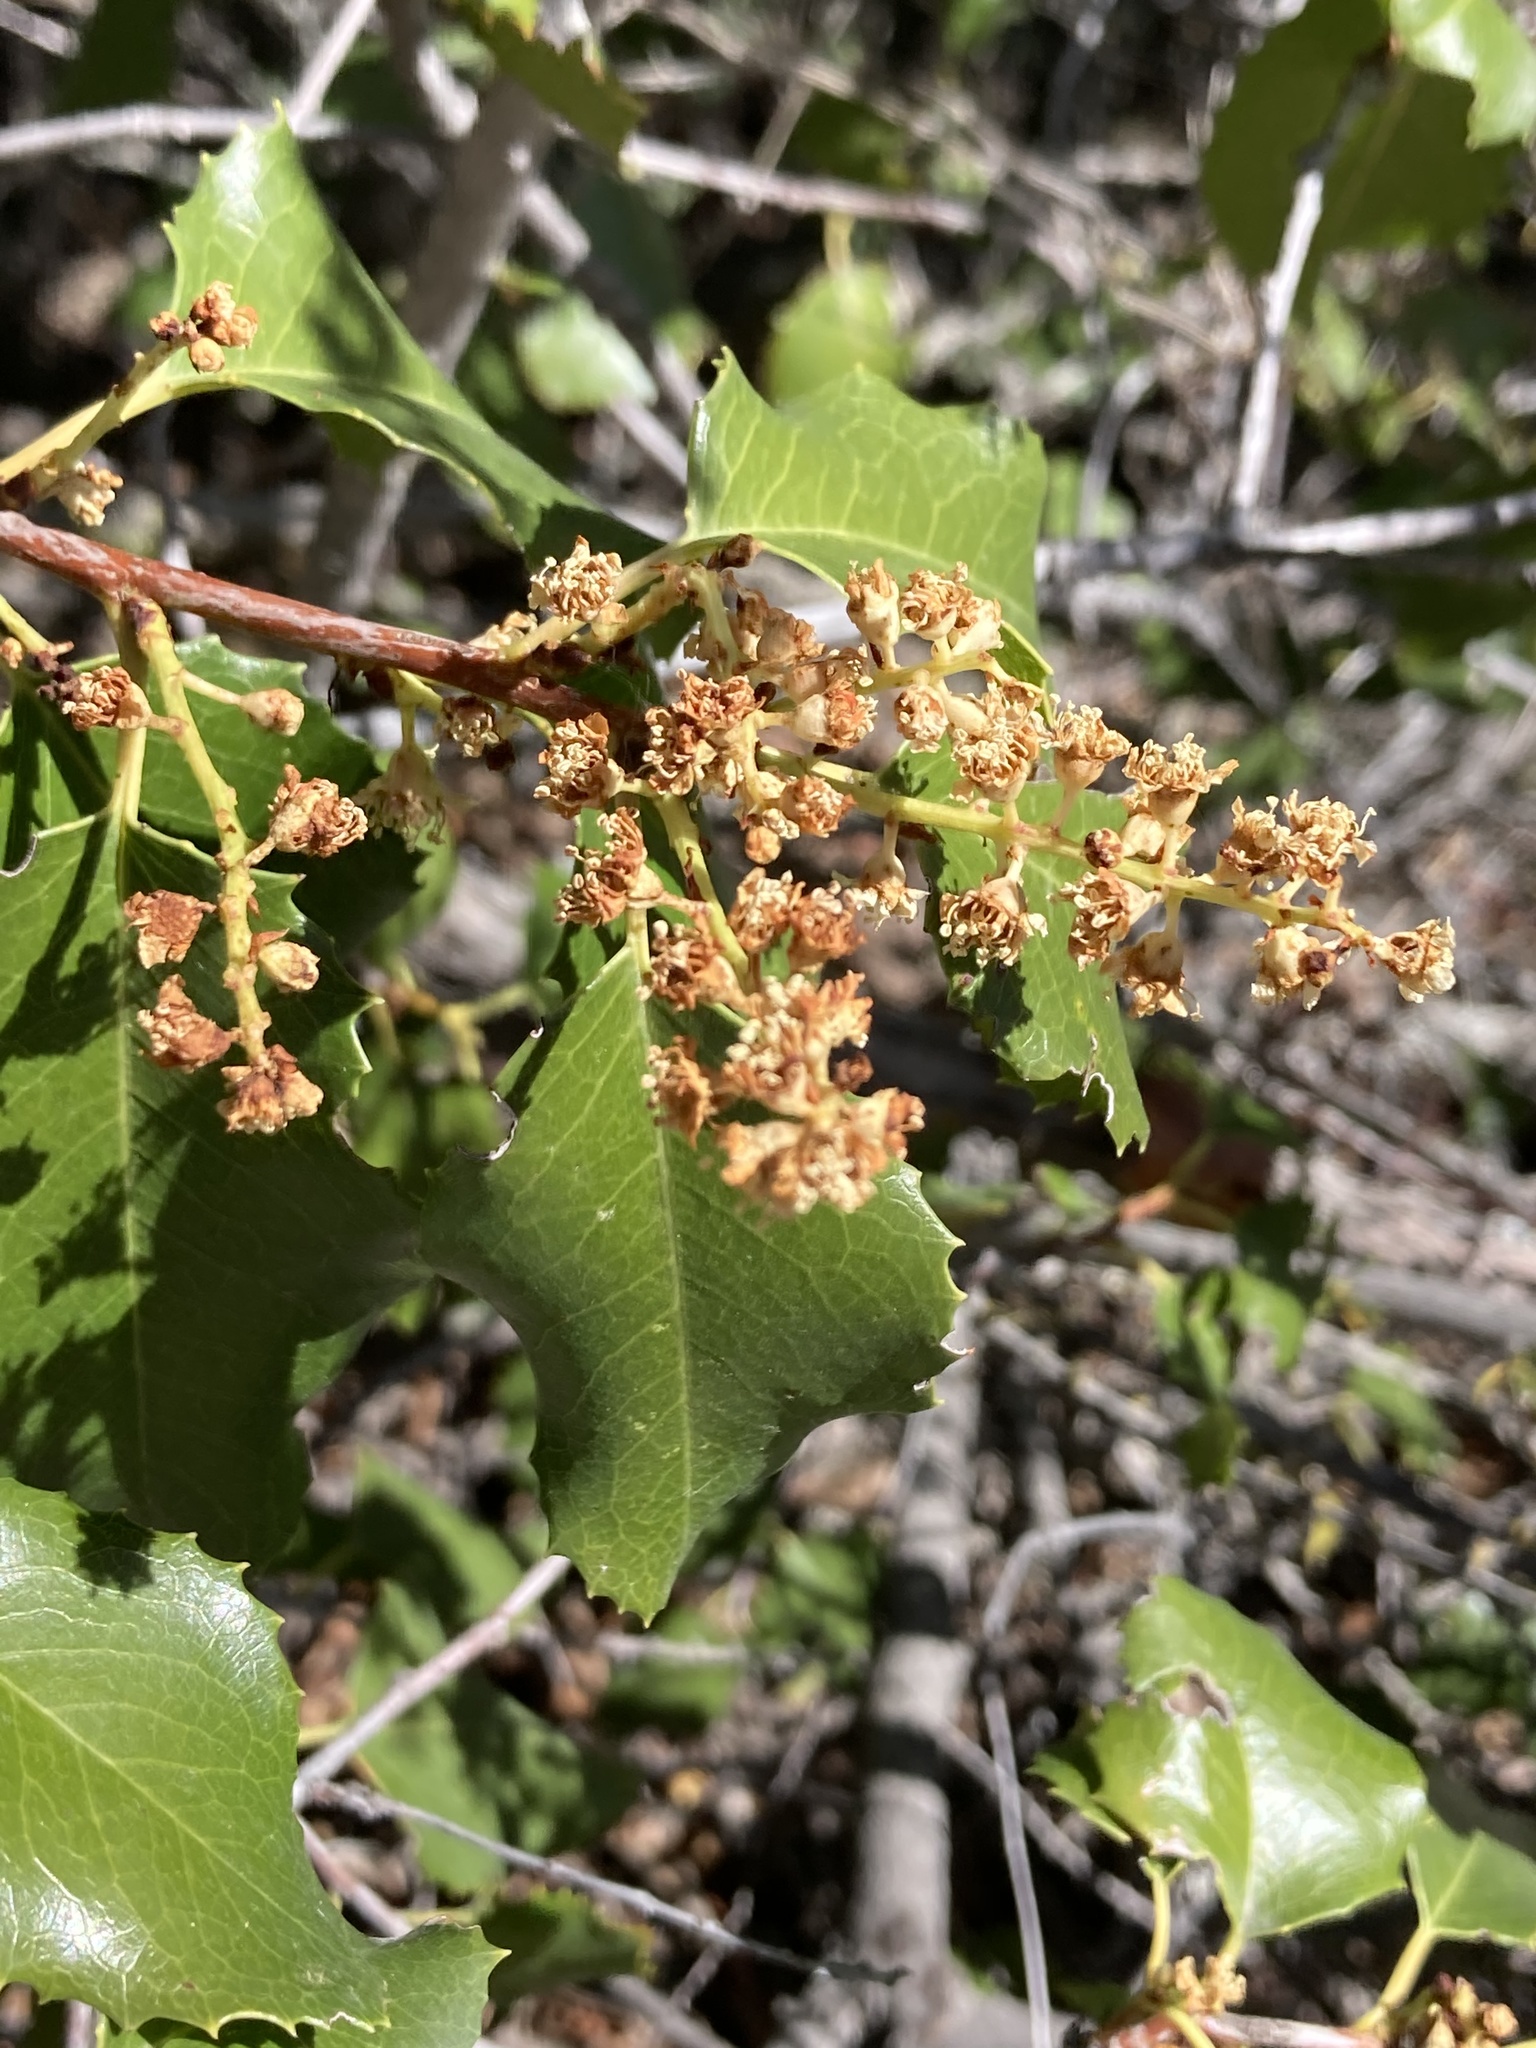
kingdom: Plantae
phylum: Tracheophyta
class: Magnoliopsida
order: Rosales
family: Rosaceae
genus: Prunus
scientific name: Prunus ilicifolia
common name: Hollyleaf cherry
